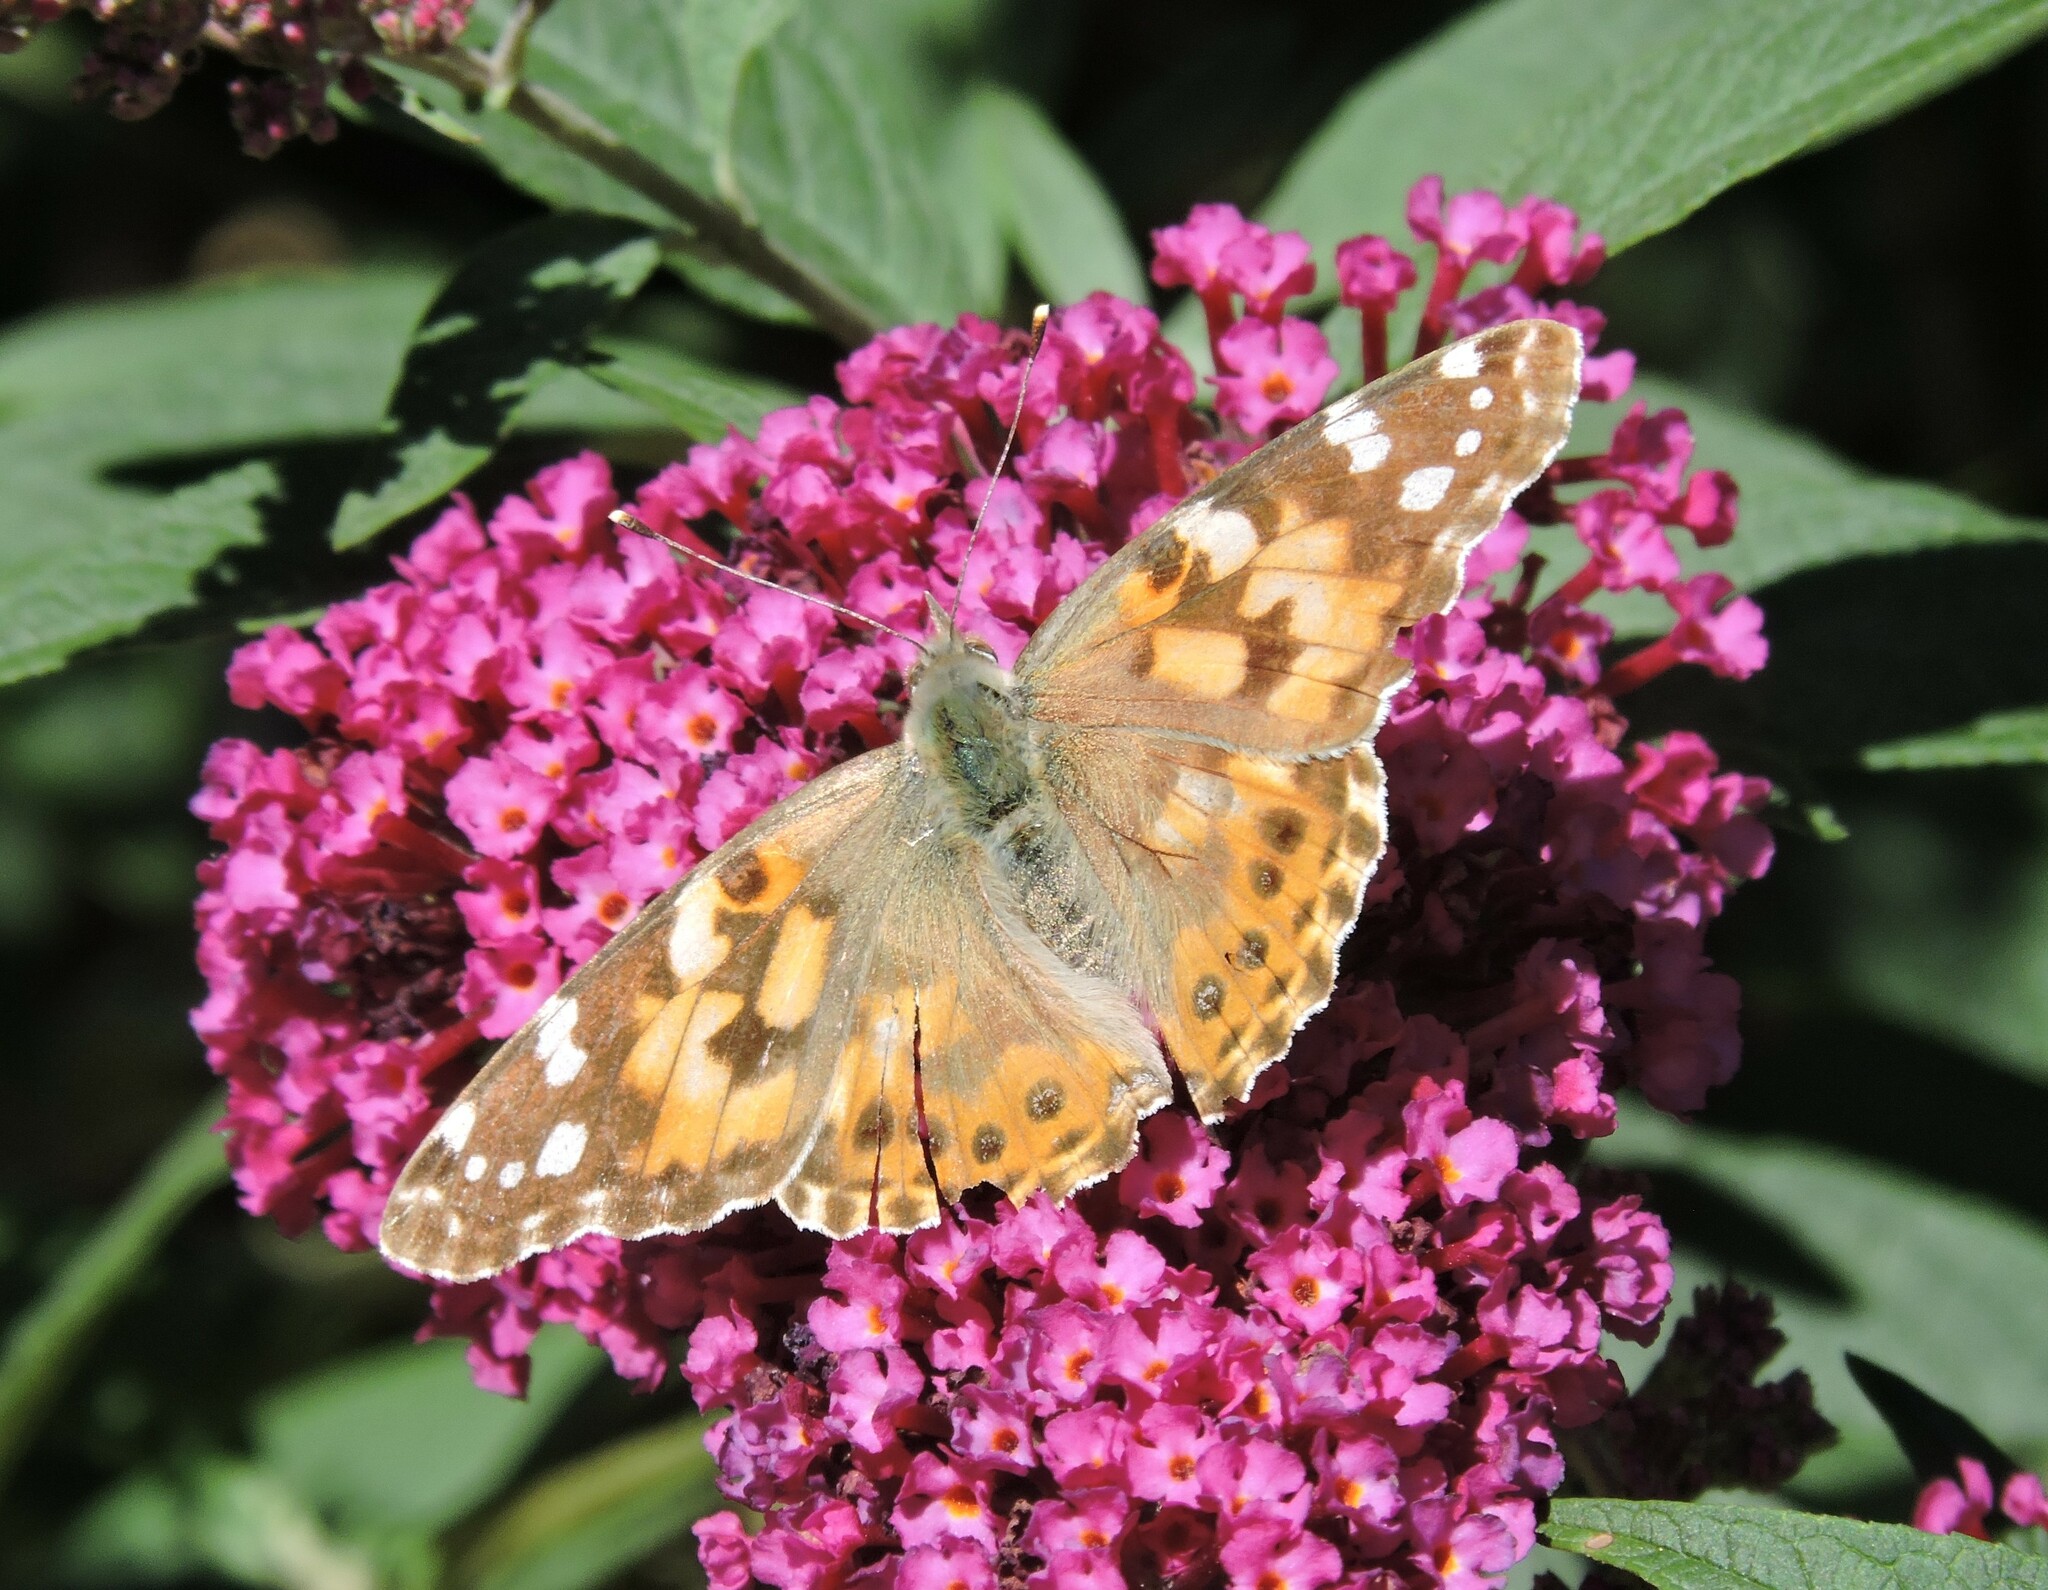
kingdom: Animalia
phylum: Arthropoda
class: Insecta
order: Lepidoptera
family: Nymphalidae
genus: Vanessa
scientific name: Vanessa cardui
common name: Painted lady
